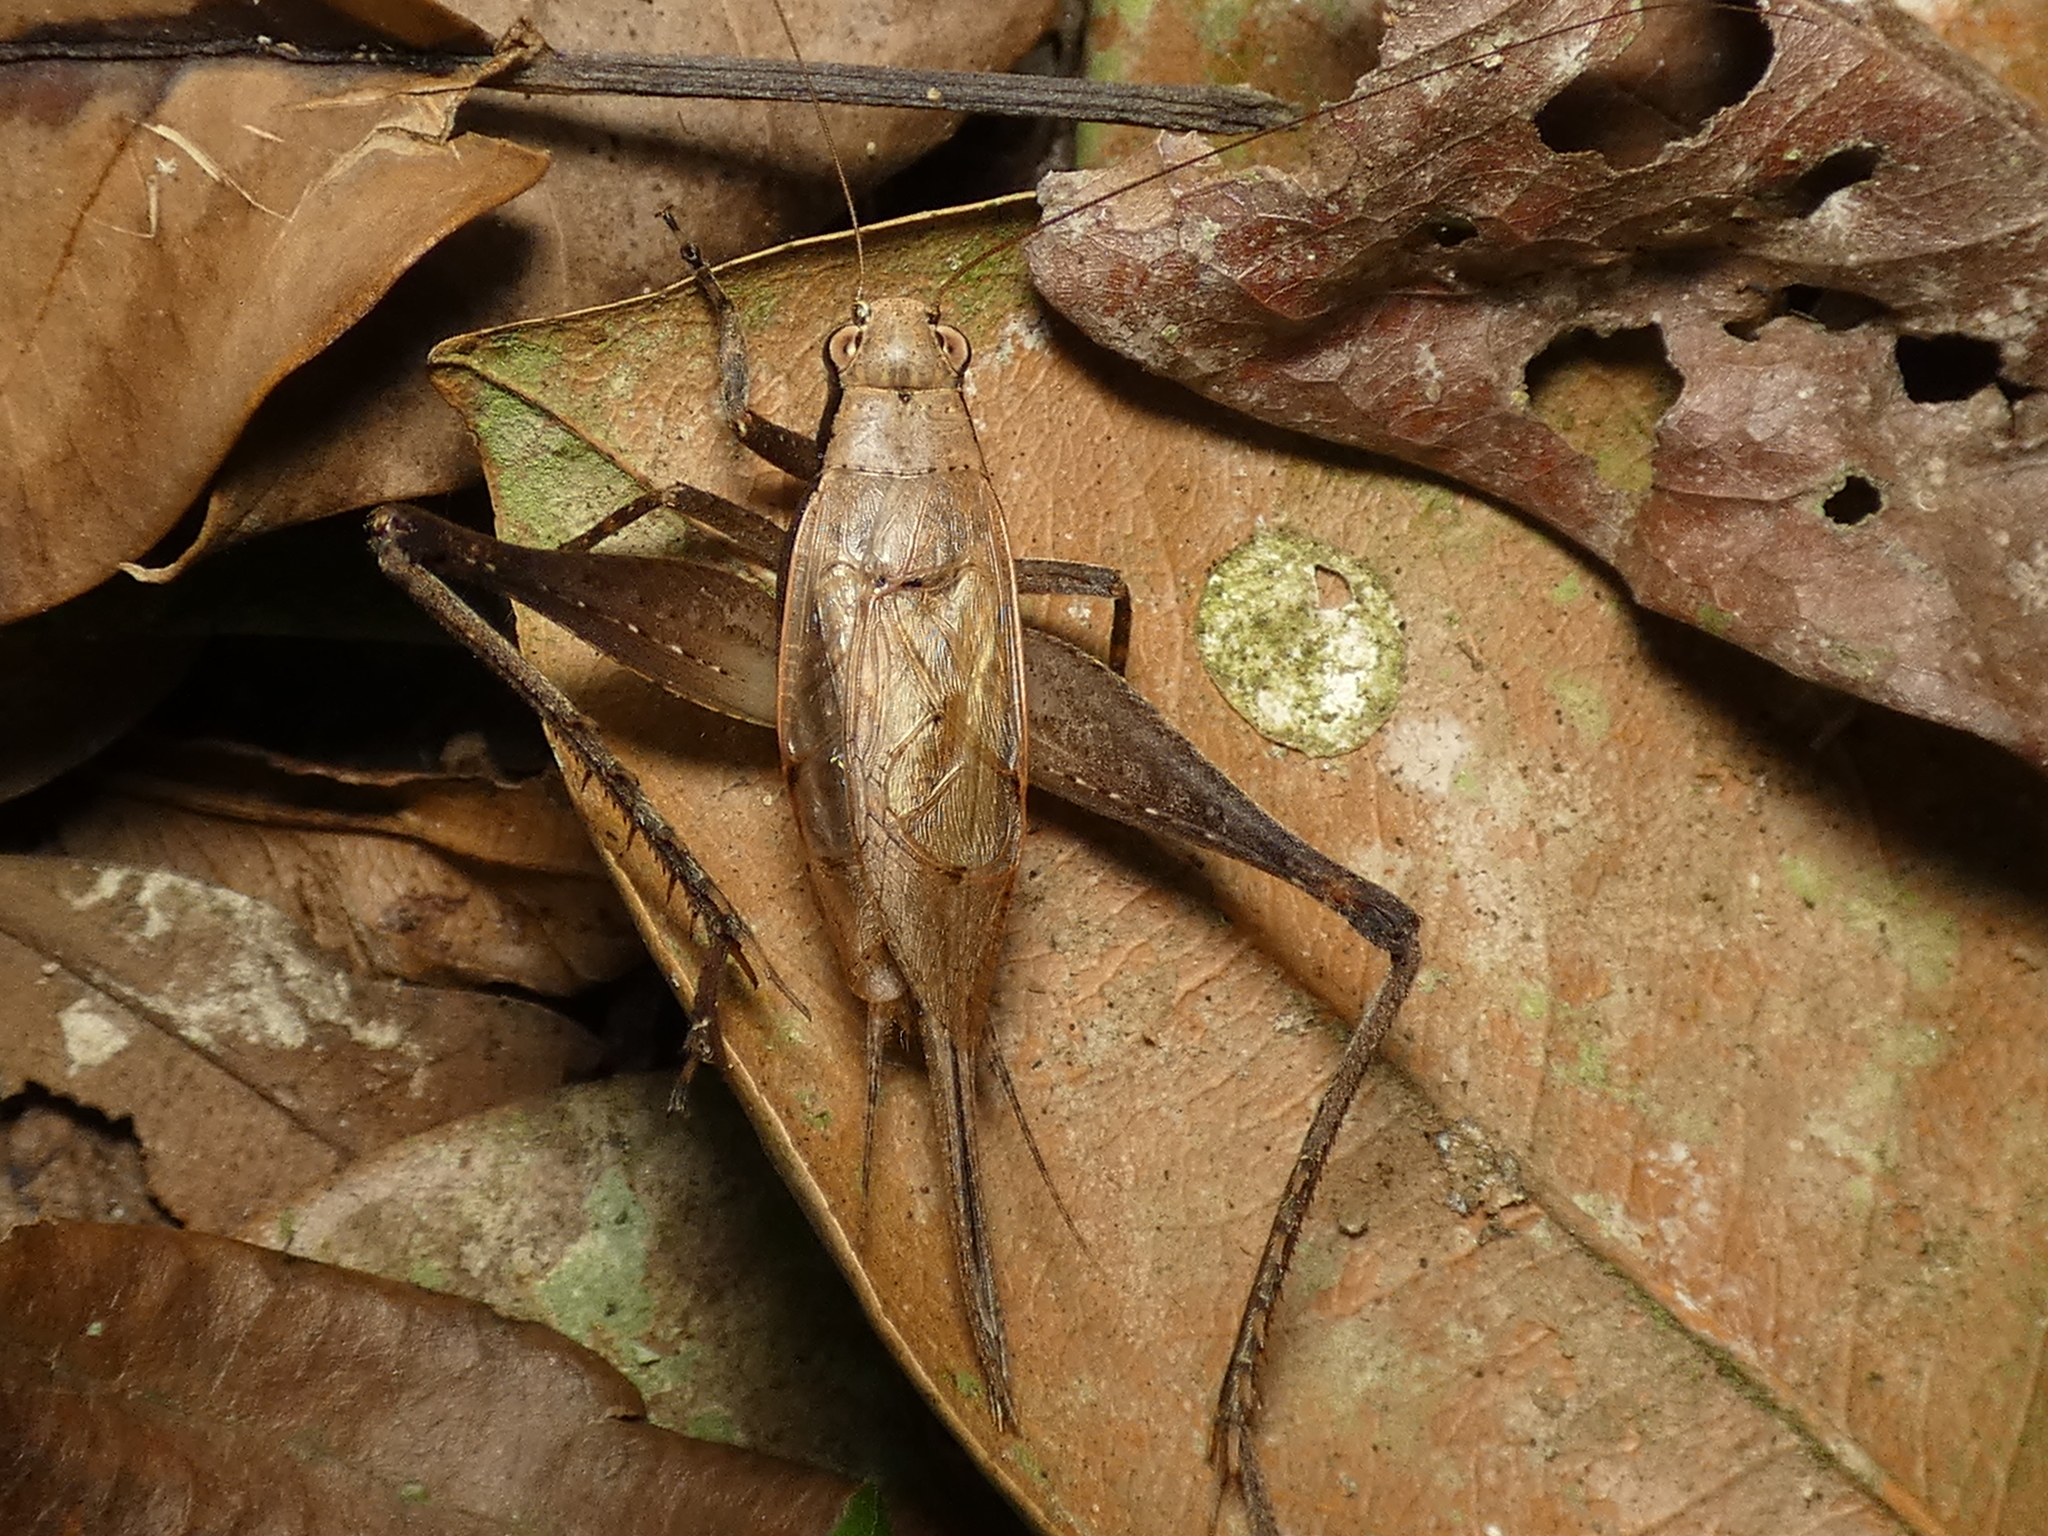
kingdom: Animalia
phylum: Arthropoda
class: Insecta
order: Orthoptera
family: Gryllidae
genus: Eneoptera
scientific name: Eneoptera surinamensis
